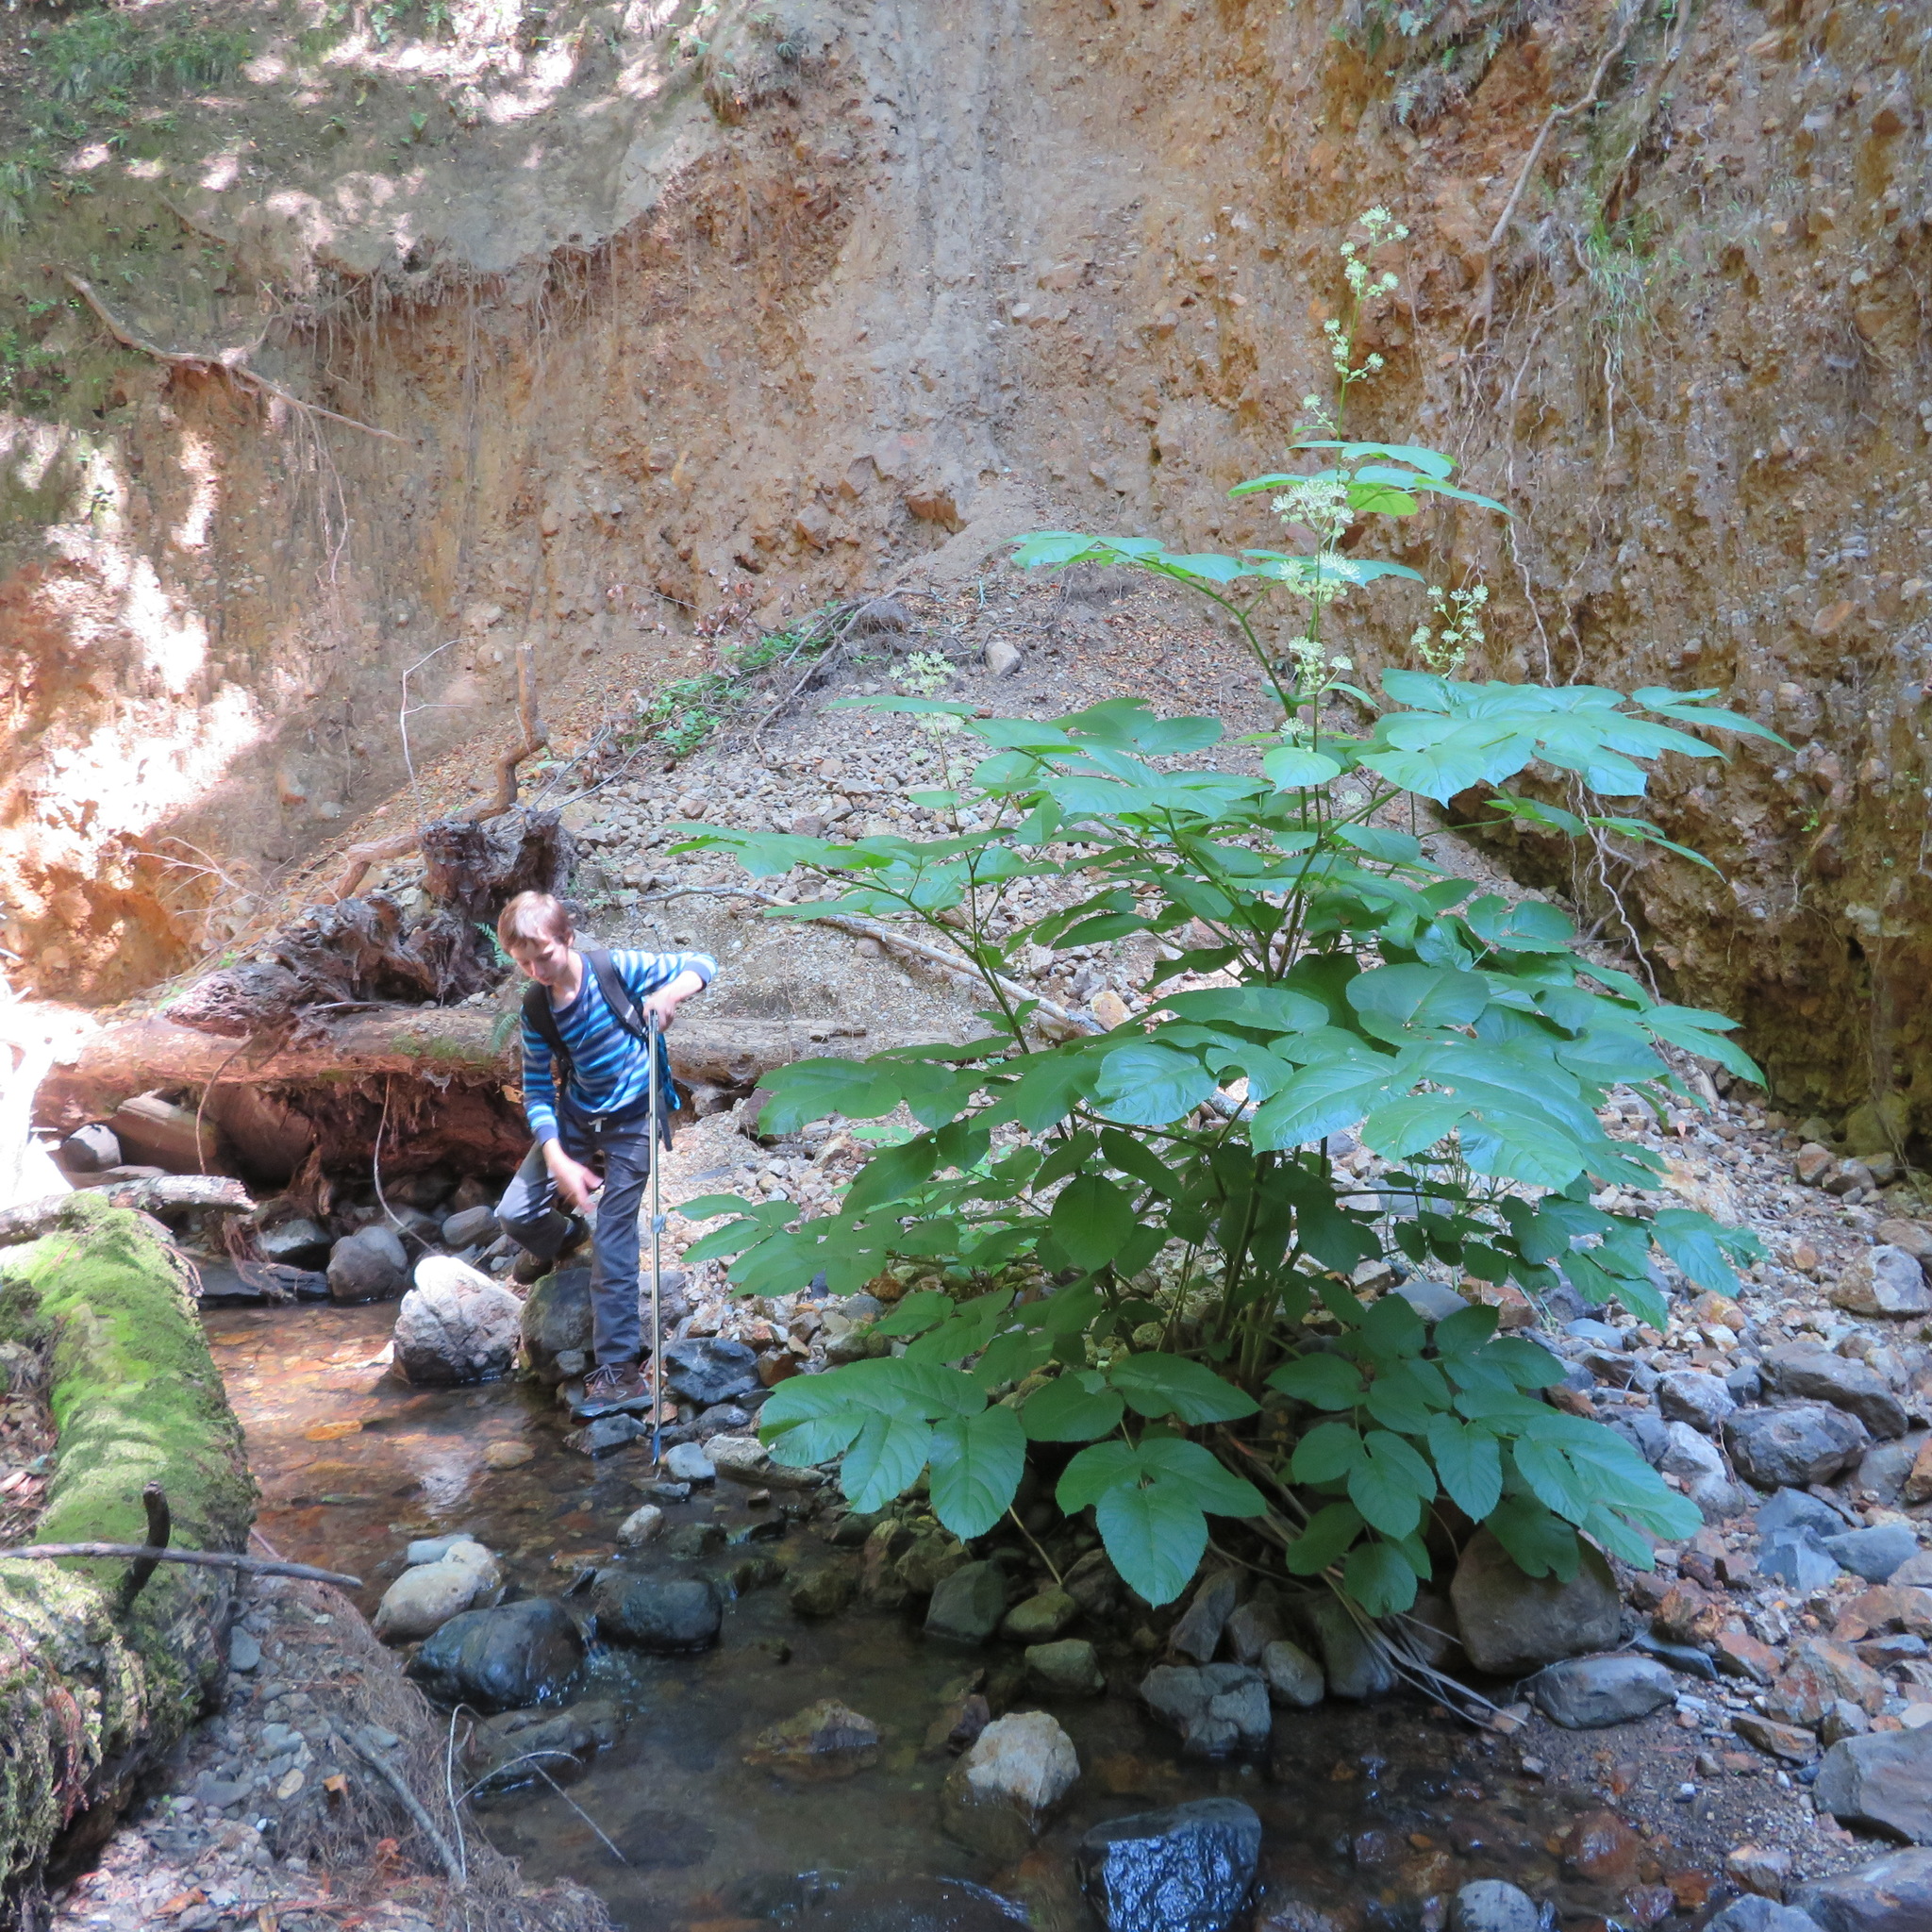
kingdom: Plantae
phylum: Tracheophyta
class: Magnoliopsida
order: Apiales
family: Araliaceae
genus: Aralia
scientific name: Aralia californica
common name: California-ginseng
